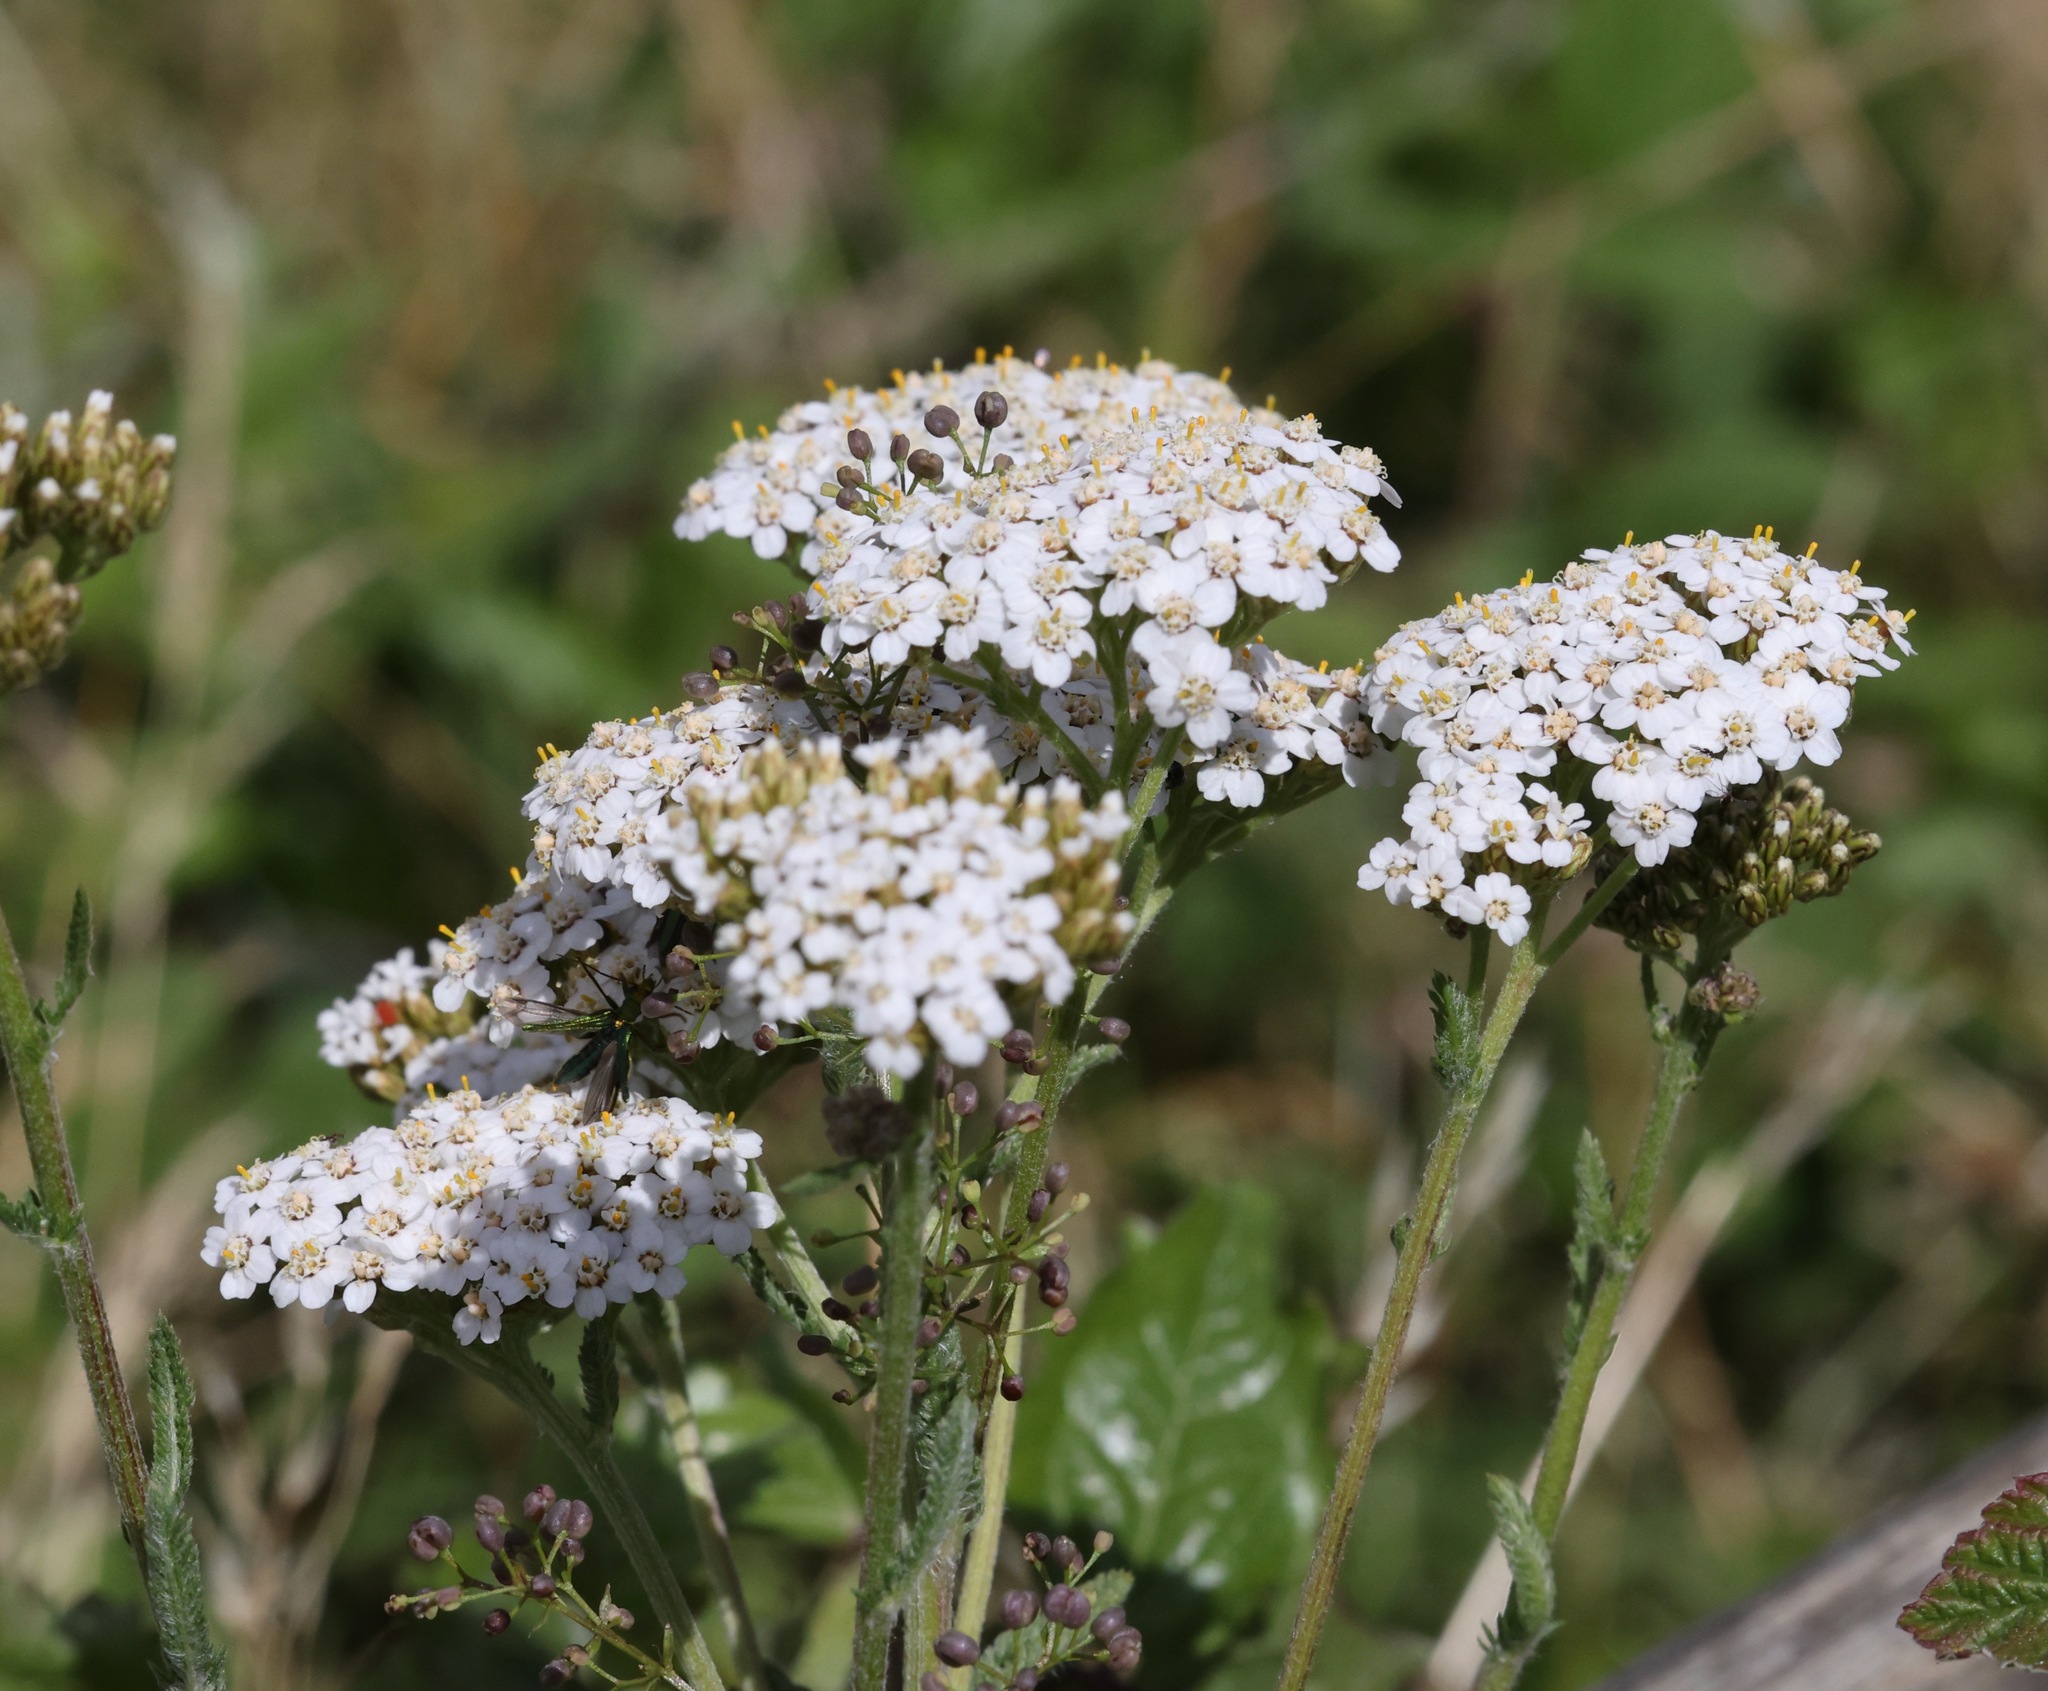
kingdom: Plantae
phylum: Tracheophyta
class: Magnoliopsida
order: Asterales
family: Asteraceae
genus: Achillea
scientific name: Achillea millefolium
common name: Yarrow
